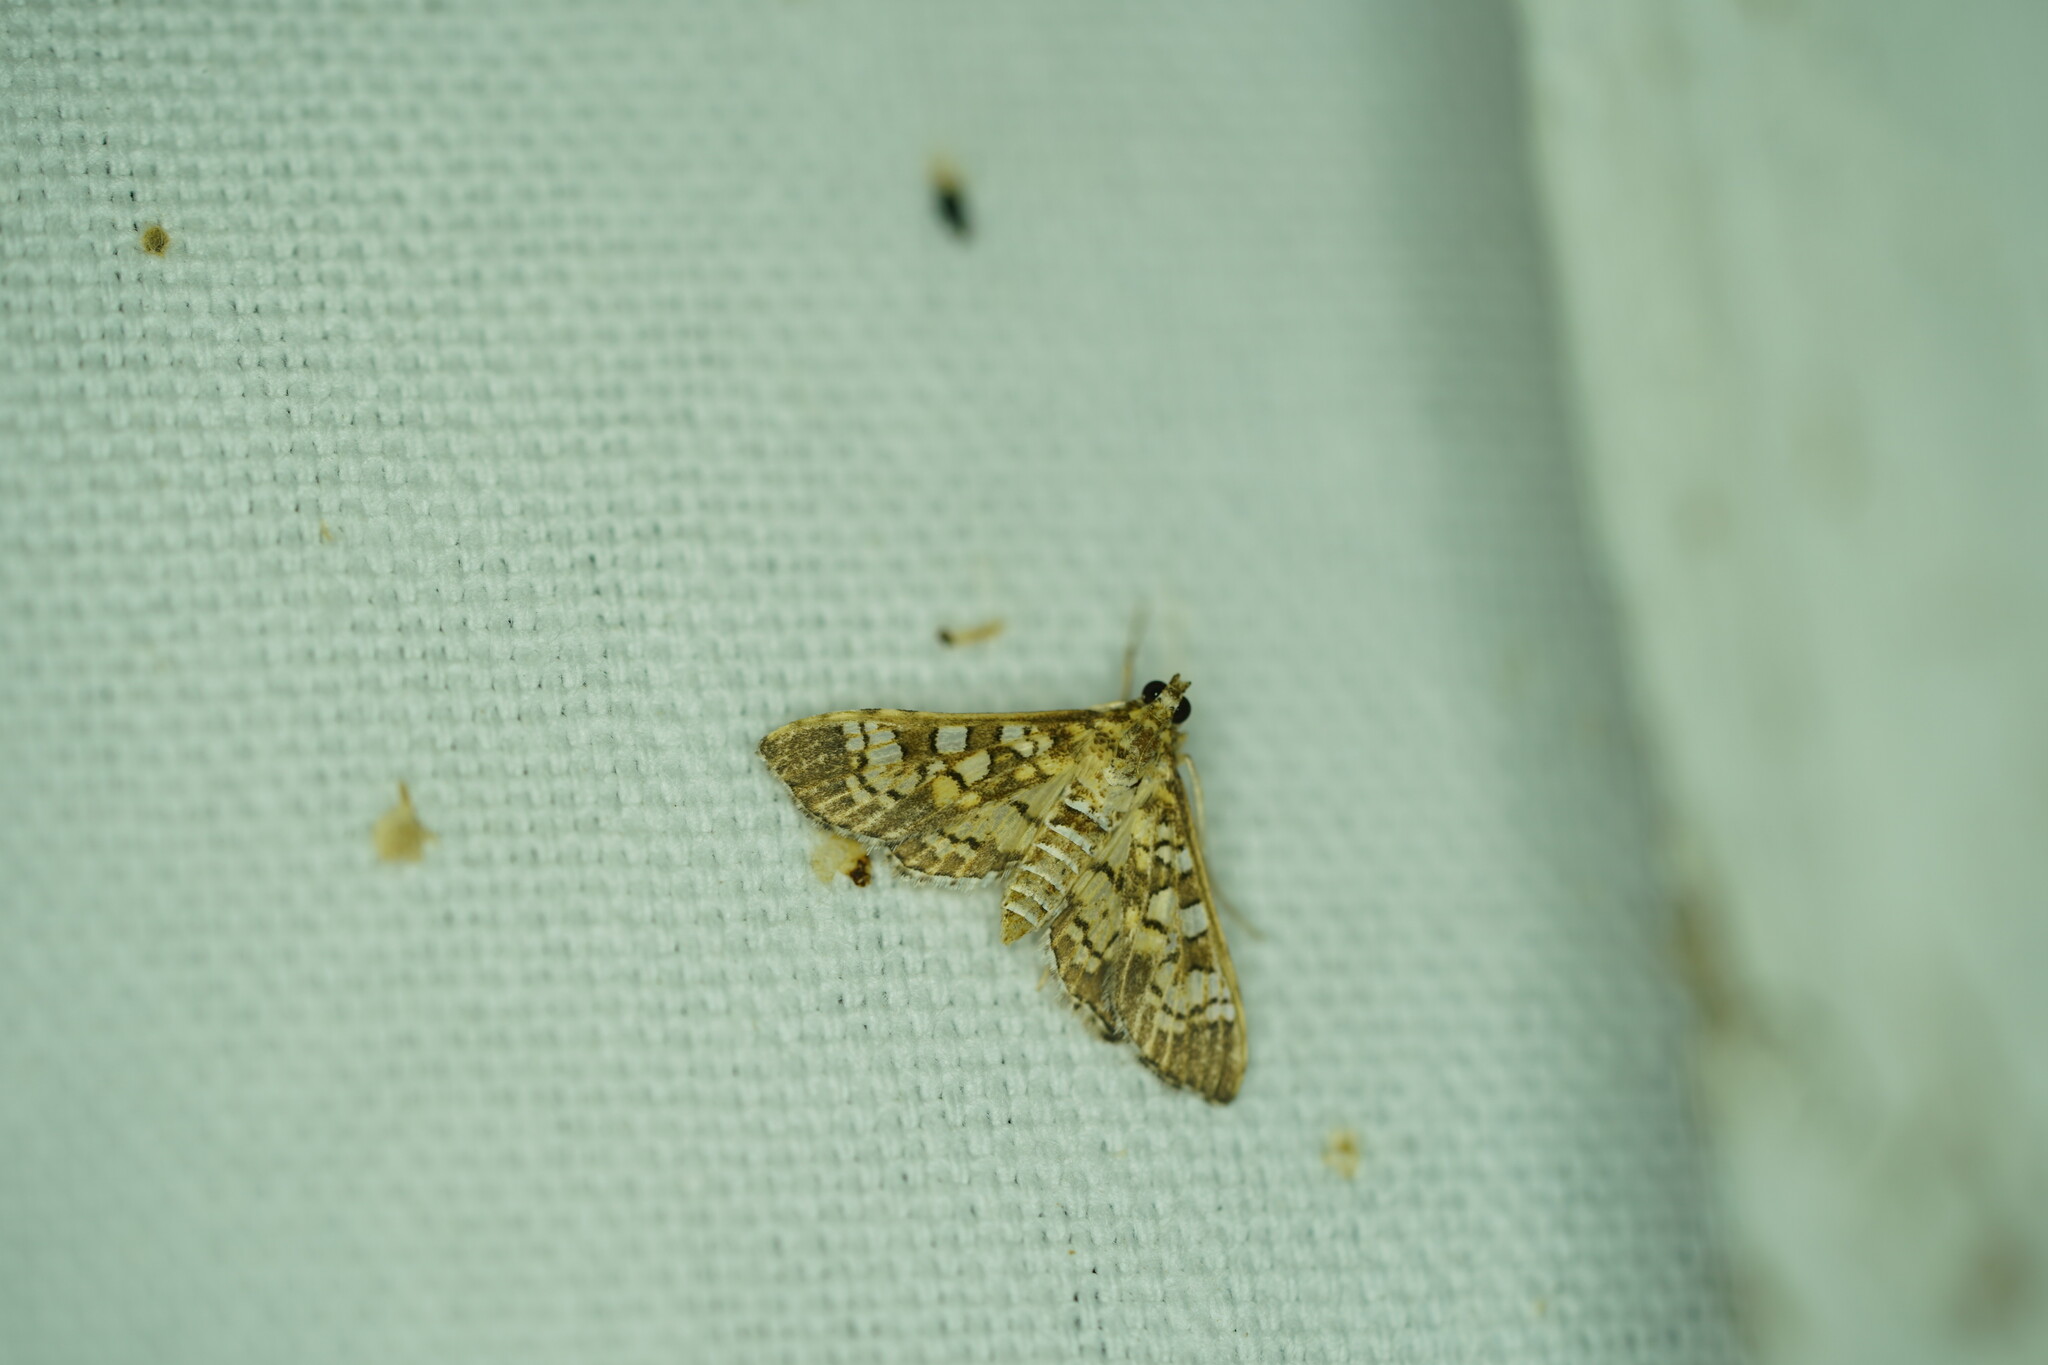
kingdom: Animalia
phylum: Arthropoda
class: Insecta
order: Lepidoptera
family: Crambidae
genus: Samea
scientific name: Samea ecclesialis
